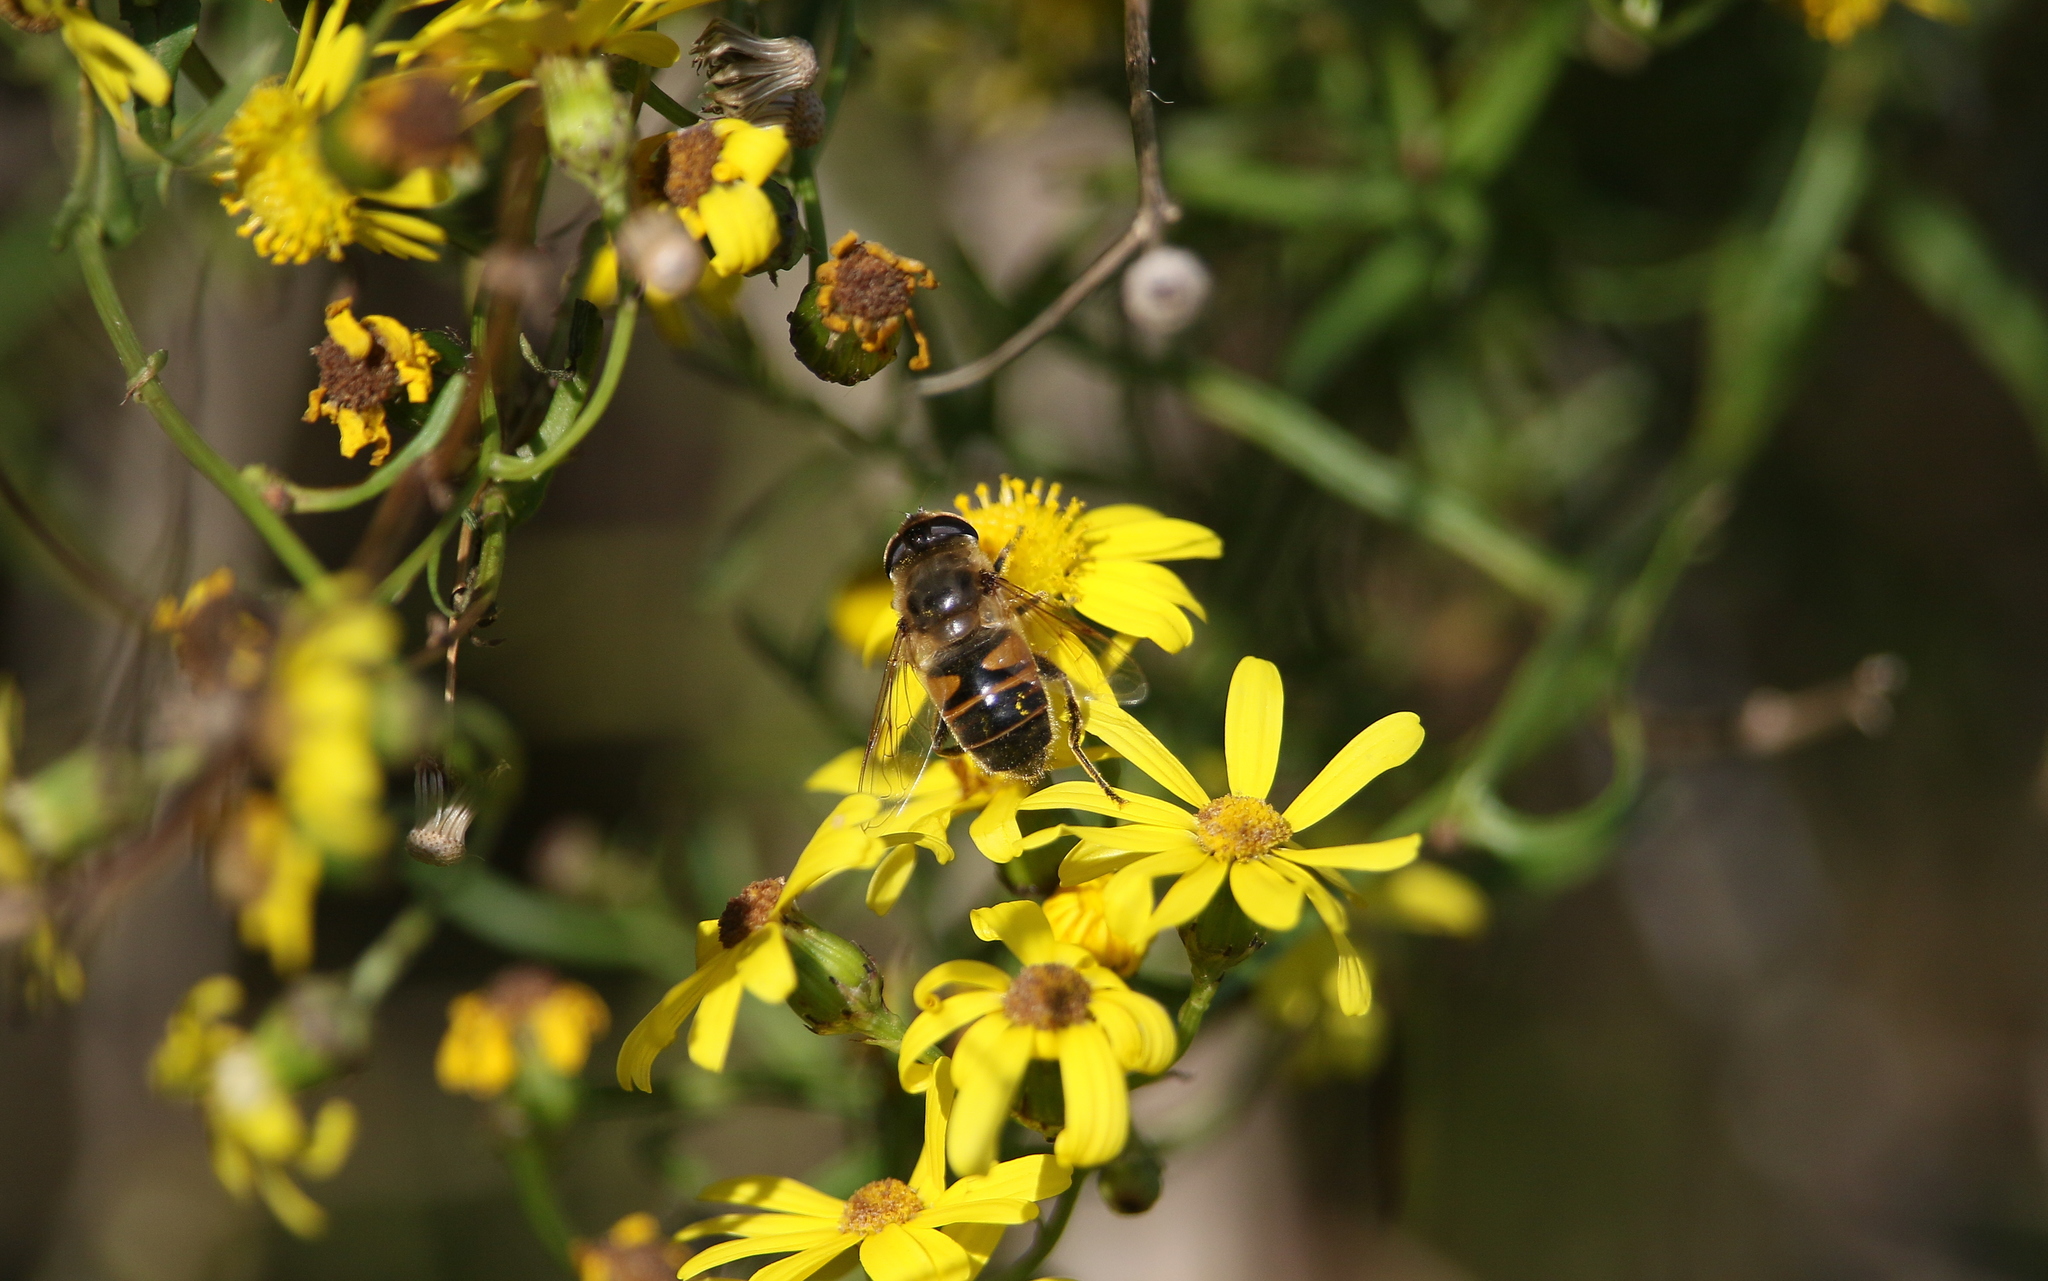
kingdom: Animalia
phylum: Arthropoda
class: Insecta
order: Diptera
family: Syrphidae
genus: Eristalis
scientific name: Eristalis tenax
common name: Drone fly
